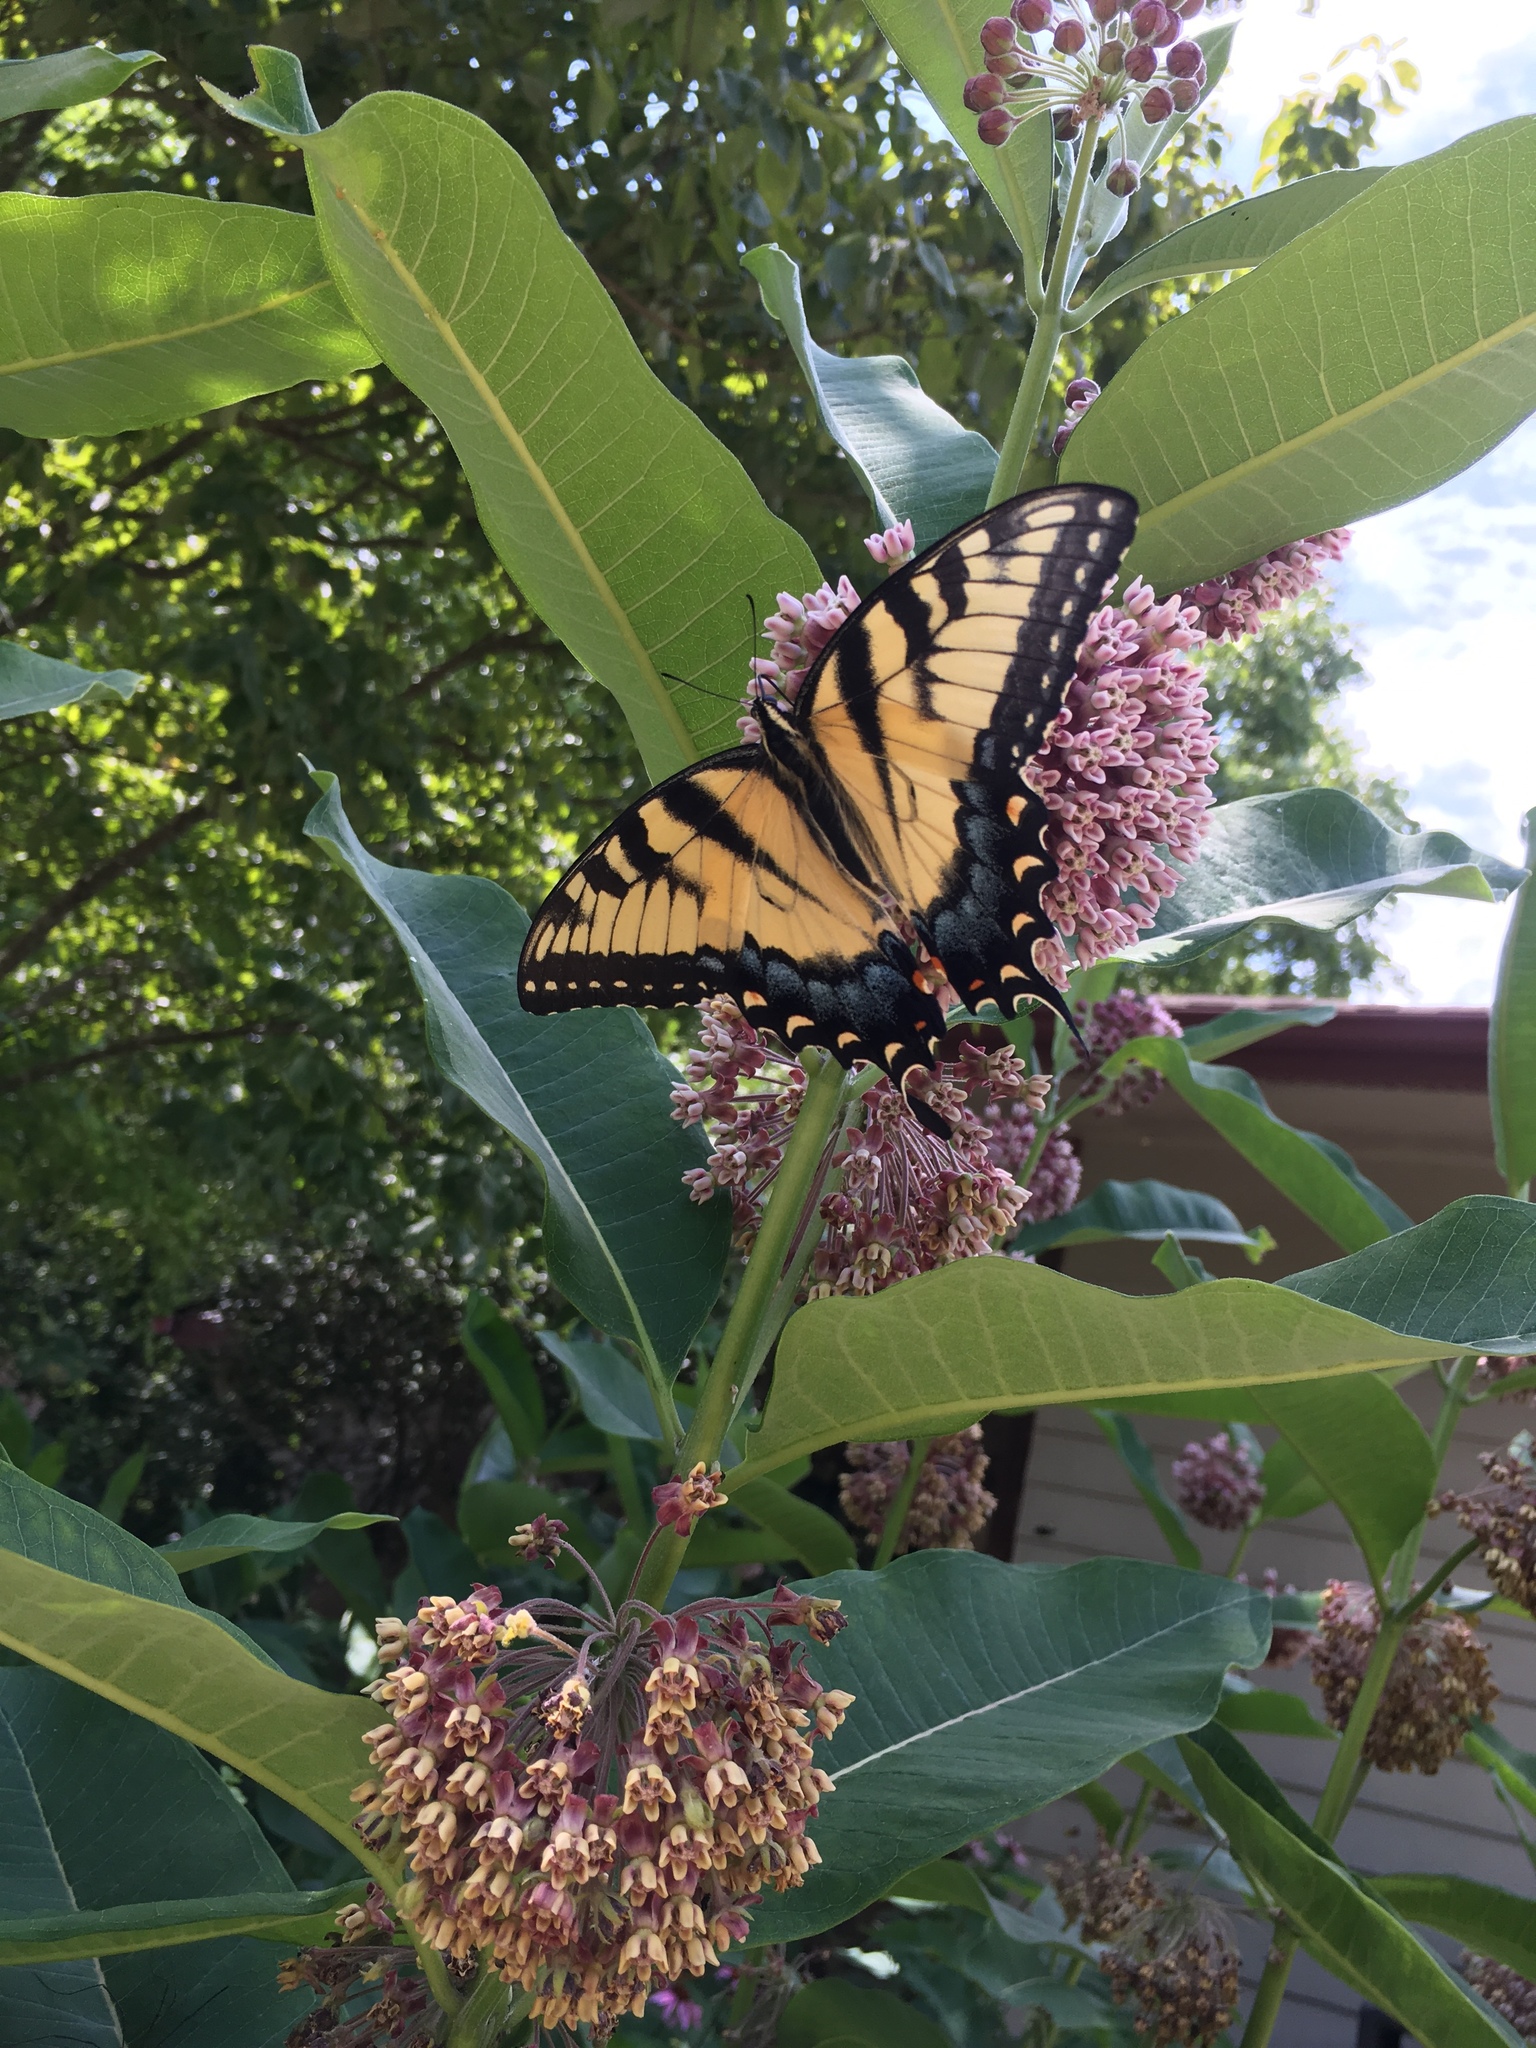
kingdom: Animalia
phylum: Arthropoda
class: Insecta
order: Lepidoptera
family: Papilionidae
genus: Papilio
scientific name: Papilio glaucus
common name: Tiger swallowtail
